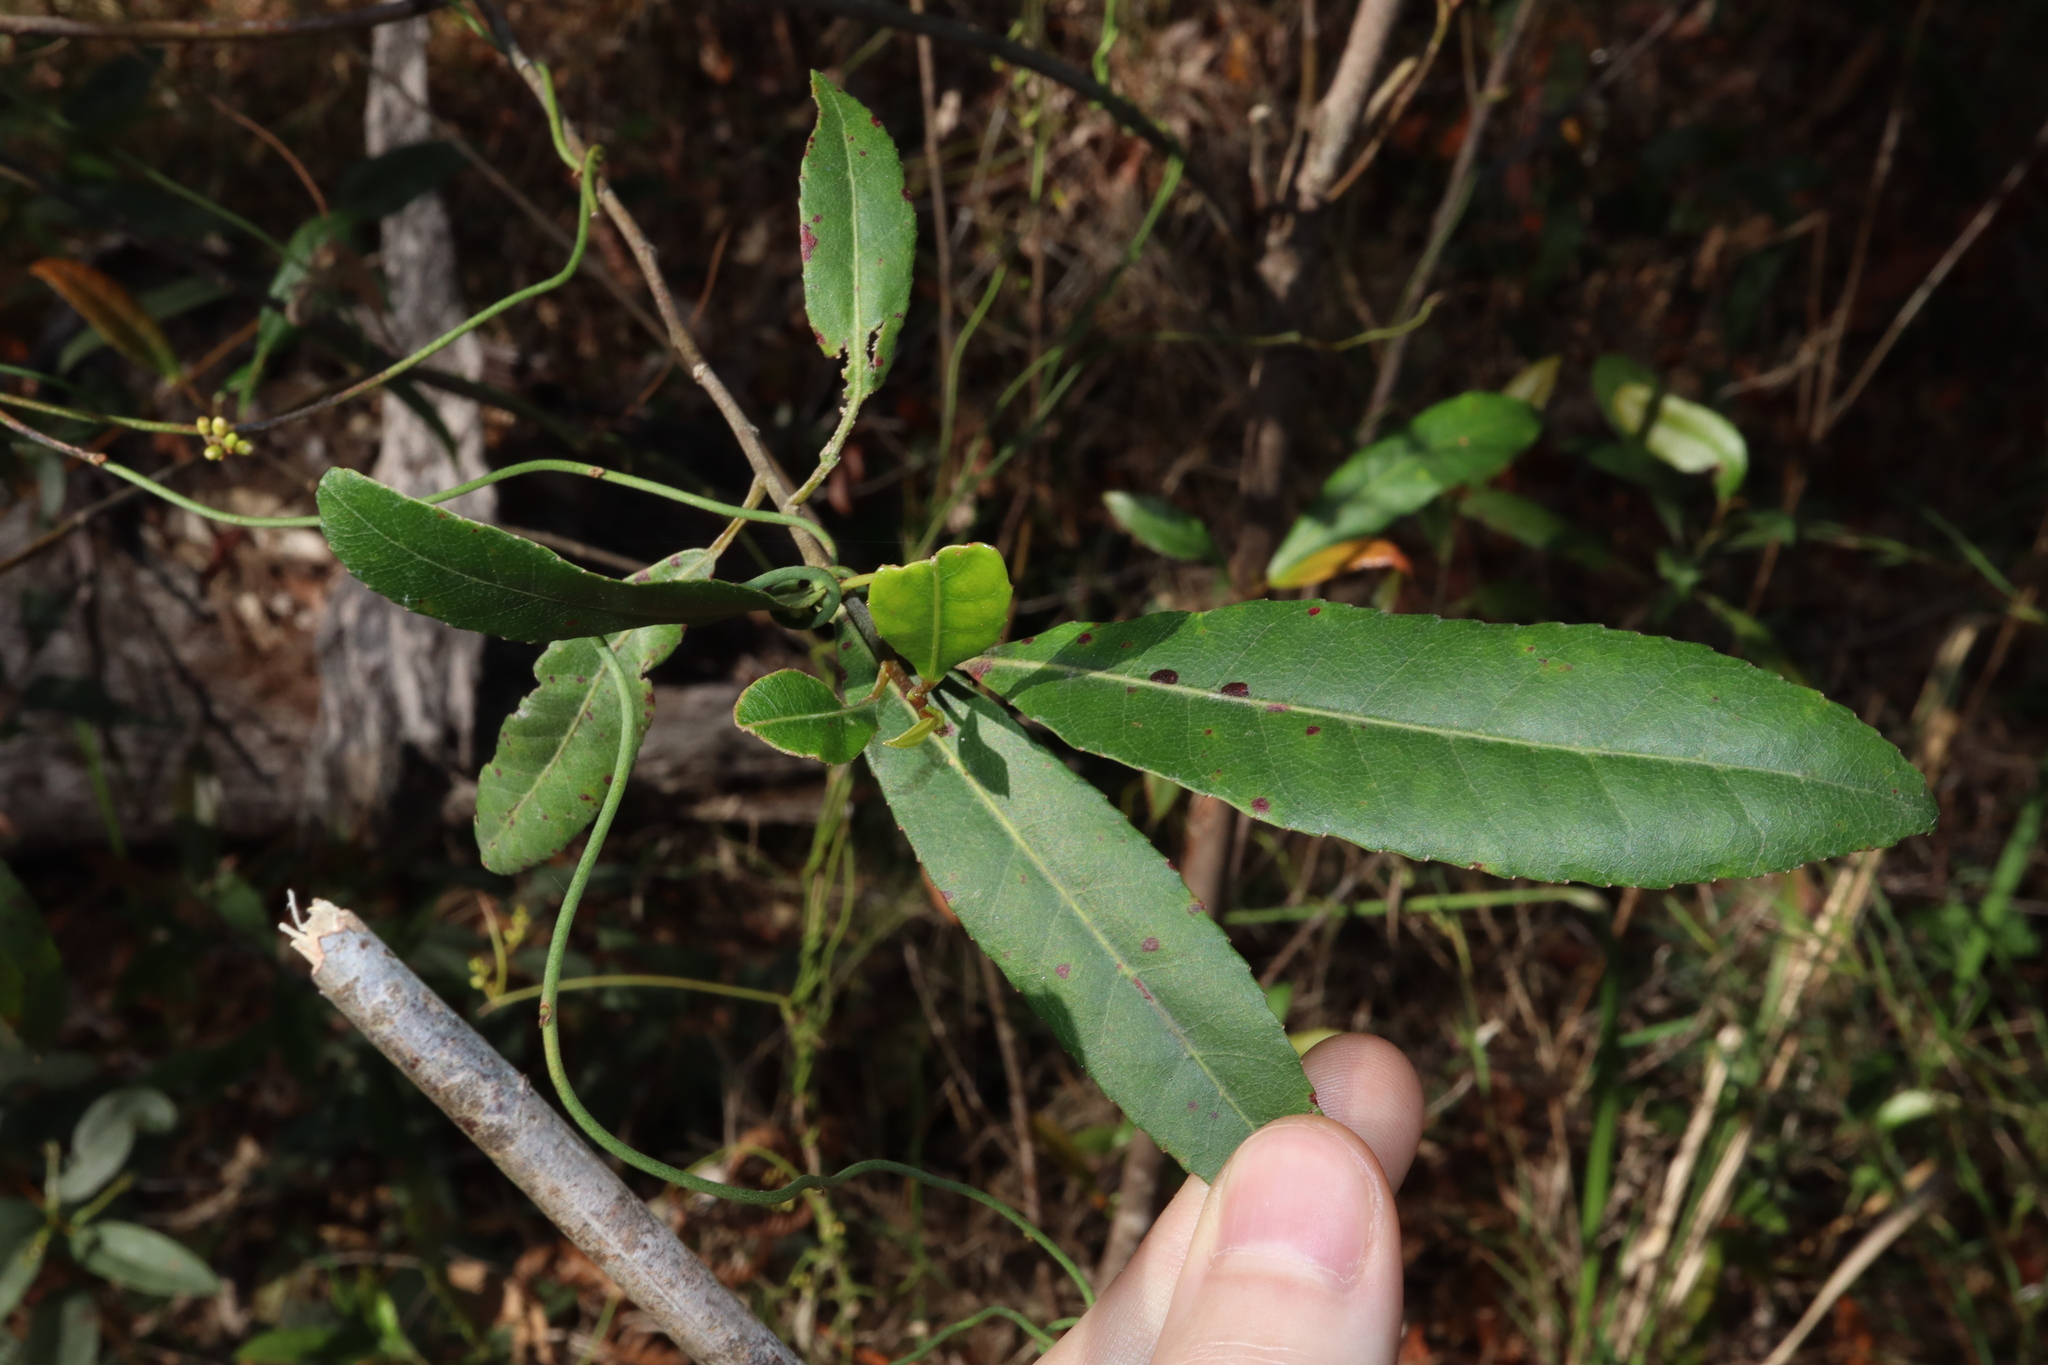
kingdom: Plantae
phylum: Tracheophyta
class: Magnoliopsida
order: Oxalidales
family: Elaeocarpaceae
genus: Elaeocarpus
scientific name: Elaeocarpus reticulatus
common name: Ash quandong
